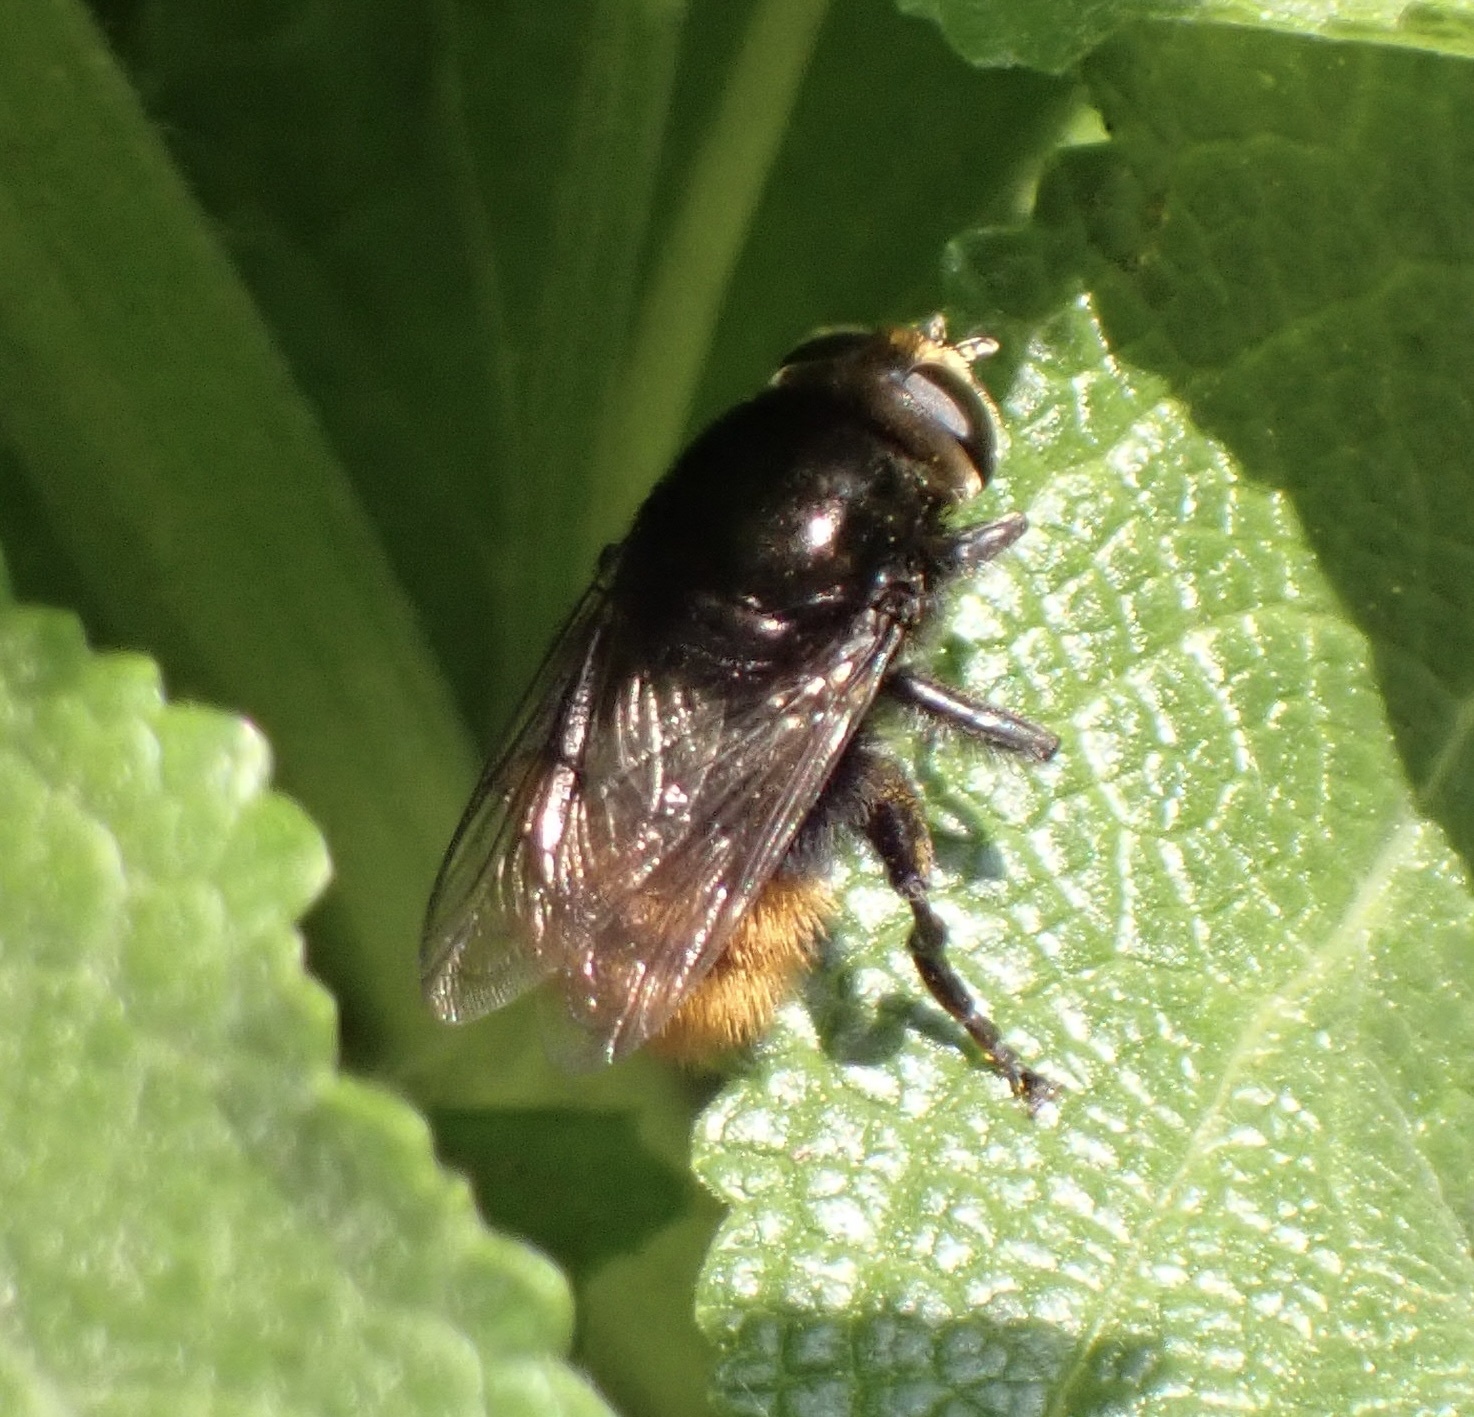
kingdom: Animalia
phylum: Arthropoda
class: Insecta
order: Diptera
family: Syrphidae
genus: Merodon
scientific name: Merodon equestris
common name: Greater bulb-fly
